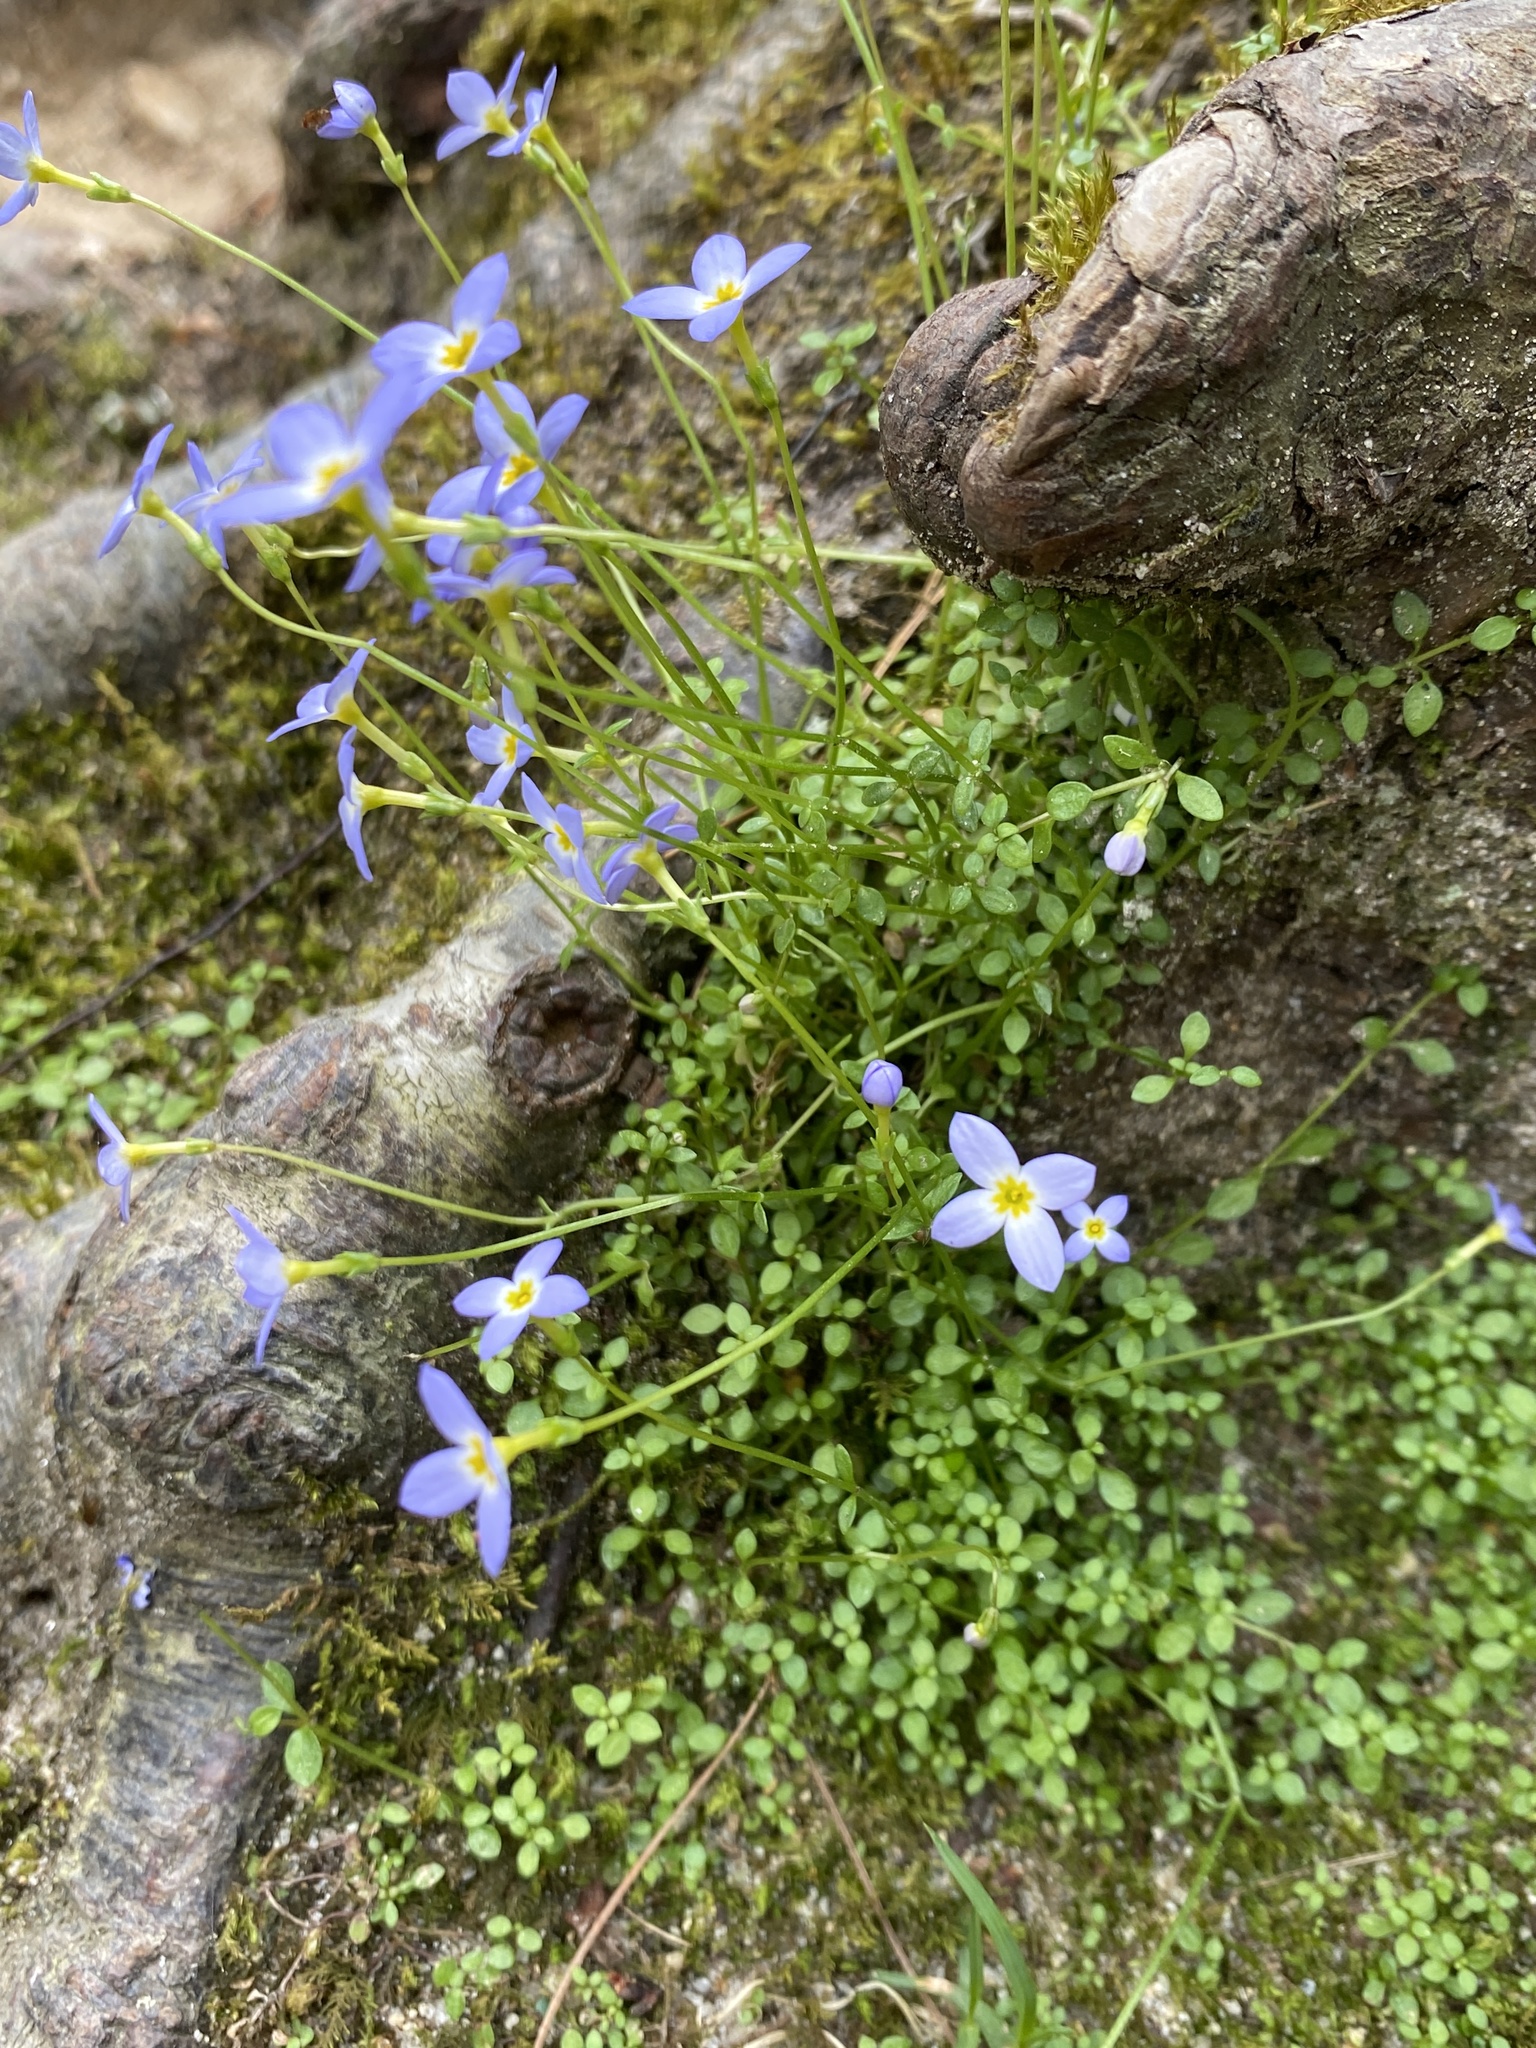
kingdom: Plantae
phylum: Tracheophyta
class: Magnoliopsida
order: Gentianales
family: Rubiaceae
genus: Houstonia
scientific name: Houstonia serpyllifolia
